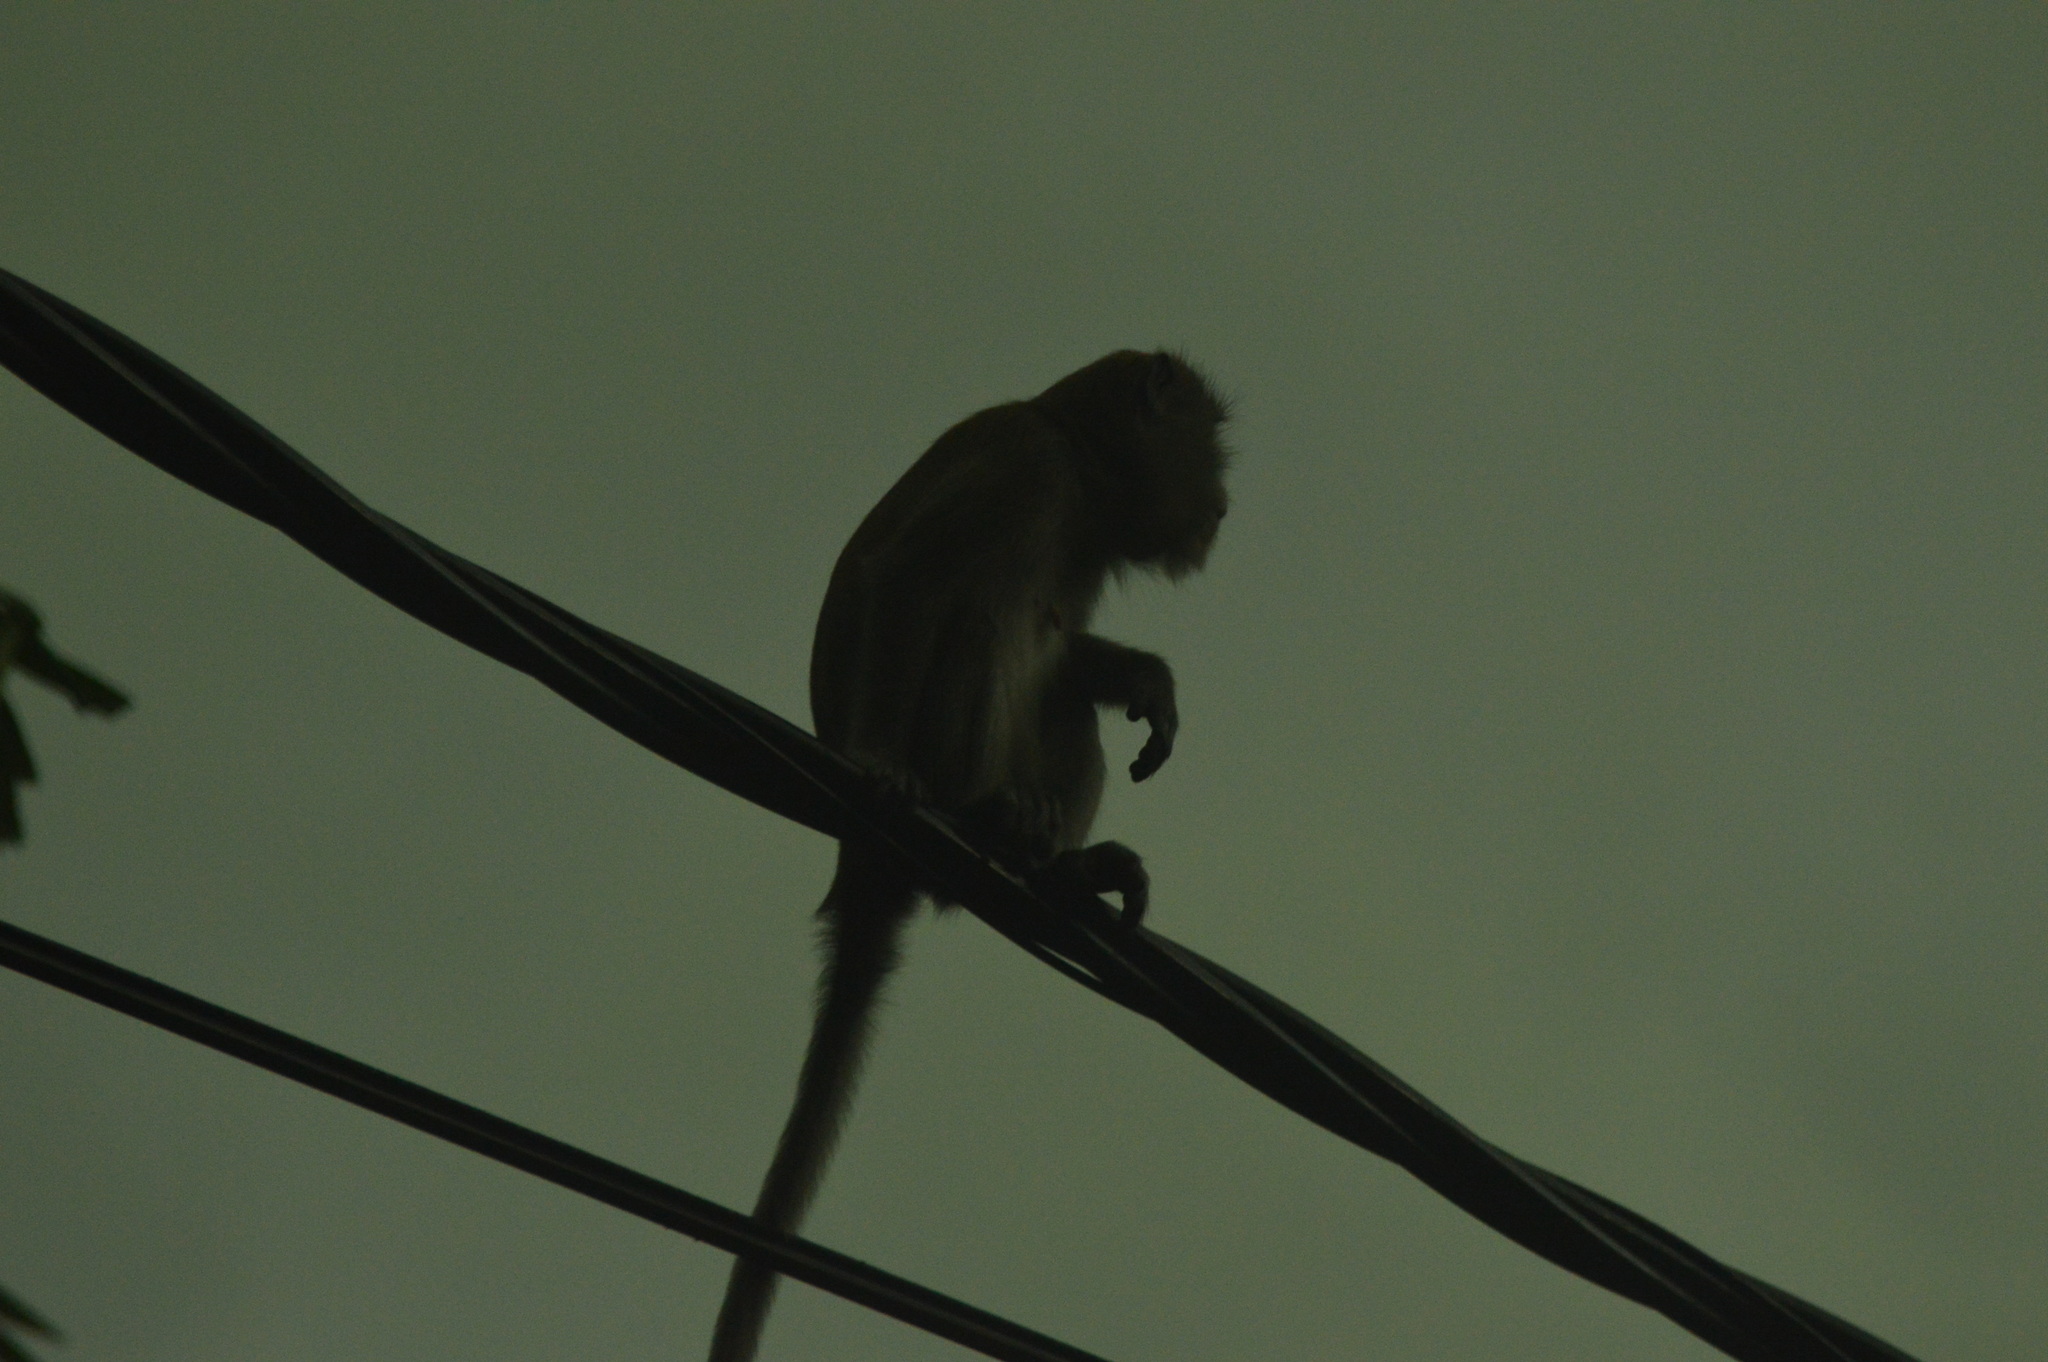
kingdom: Animalia
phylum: Chordata
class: Mammalia
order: Primates
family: Cercopithecidae
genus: Macaca
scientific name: Macaca fascicularis
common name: Crab-eating macaque
